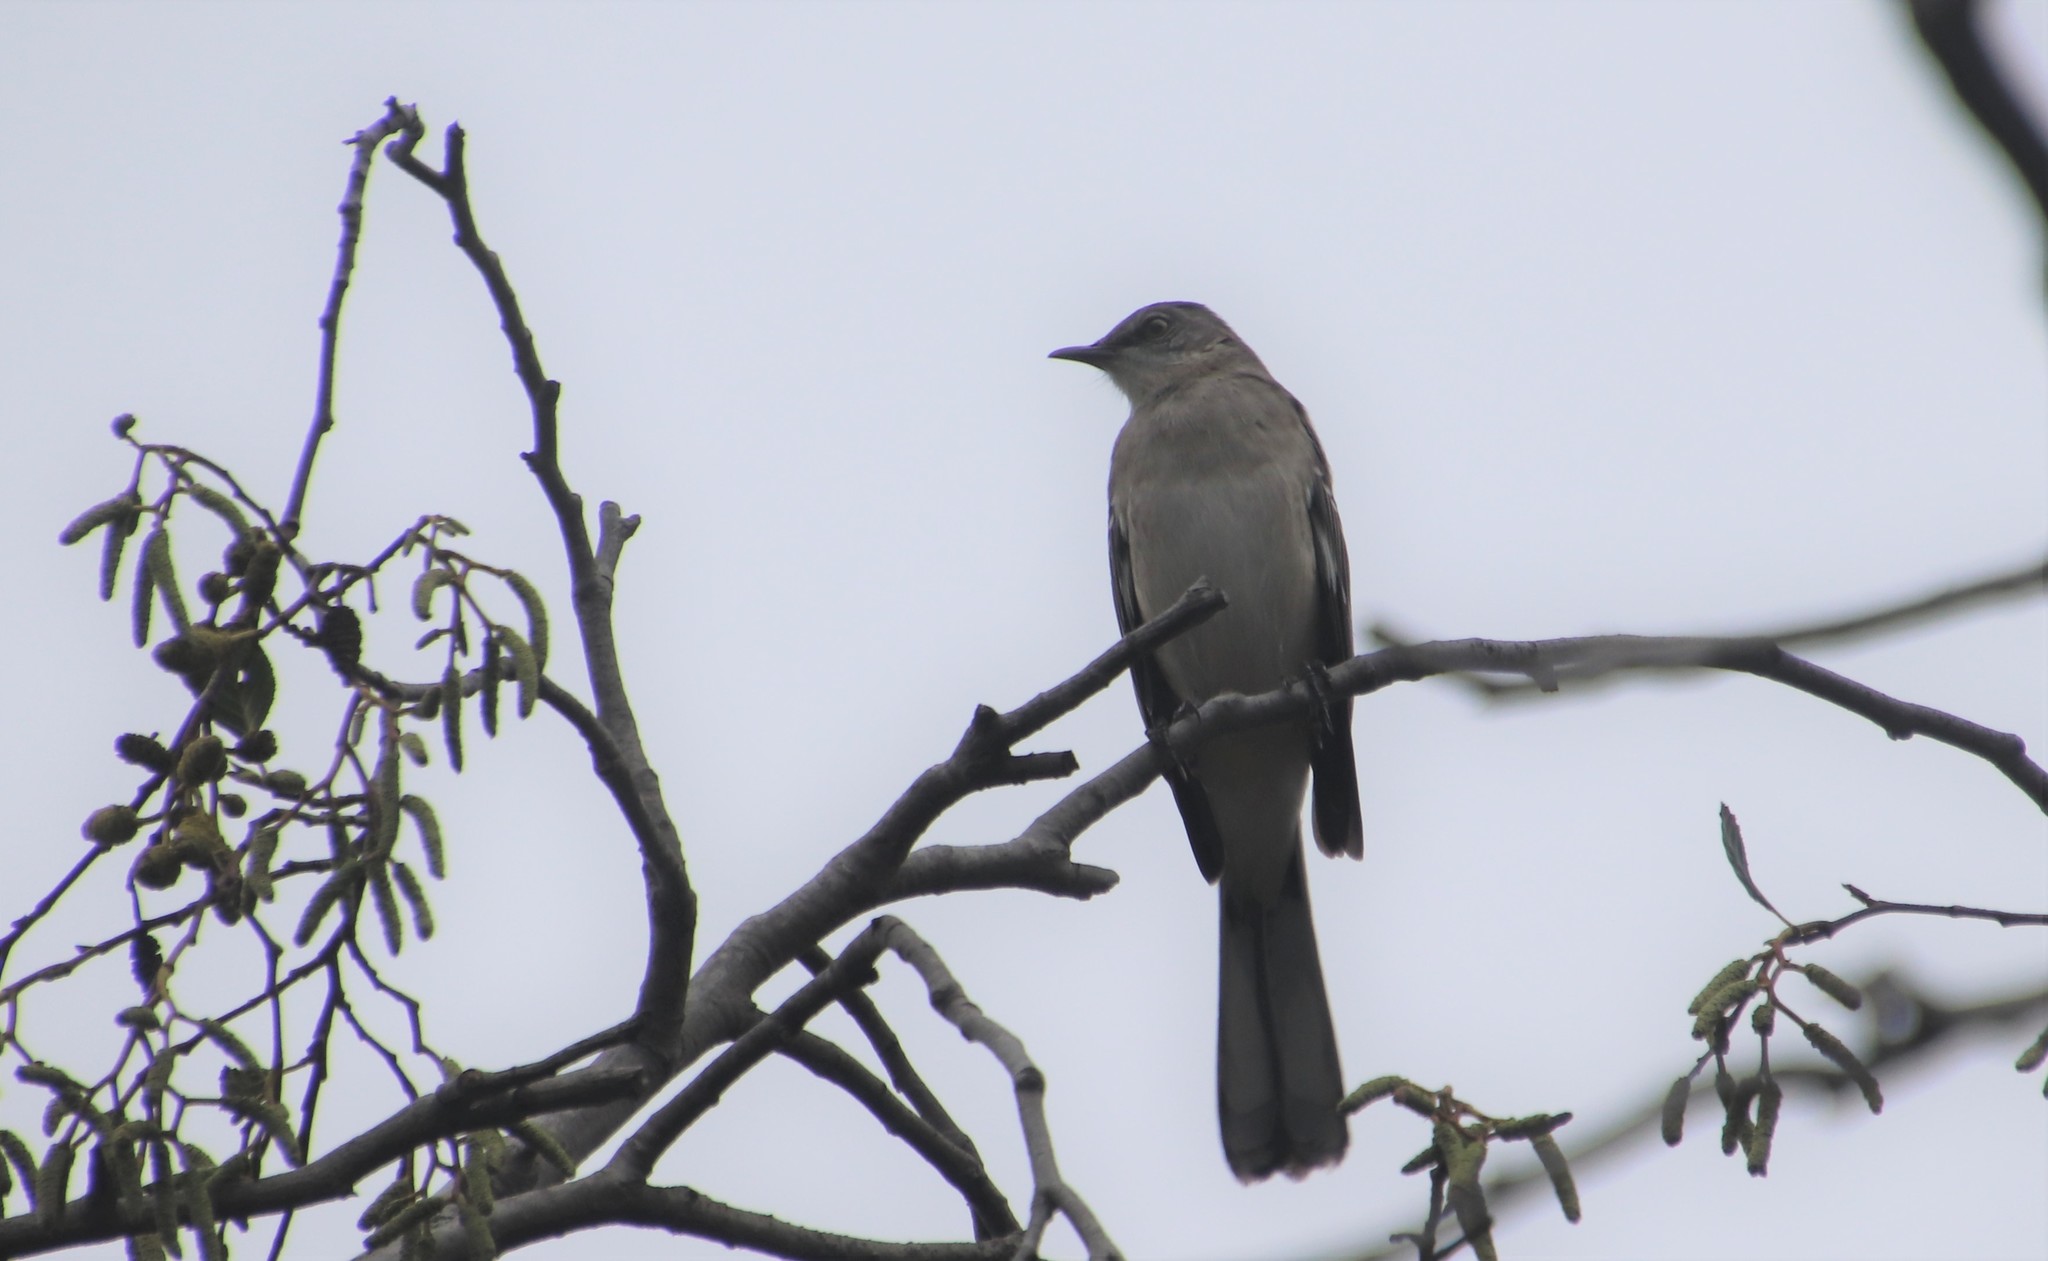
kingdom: Animalia
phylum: Chordata
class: Aves
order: Passeriformes
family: Mimidae
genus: Mimus
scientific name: Mimus polyglottos
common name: Northern mockingbird
